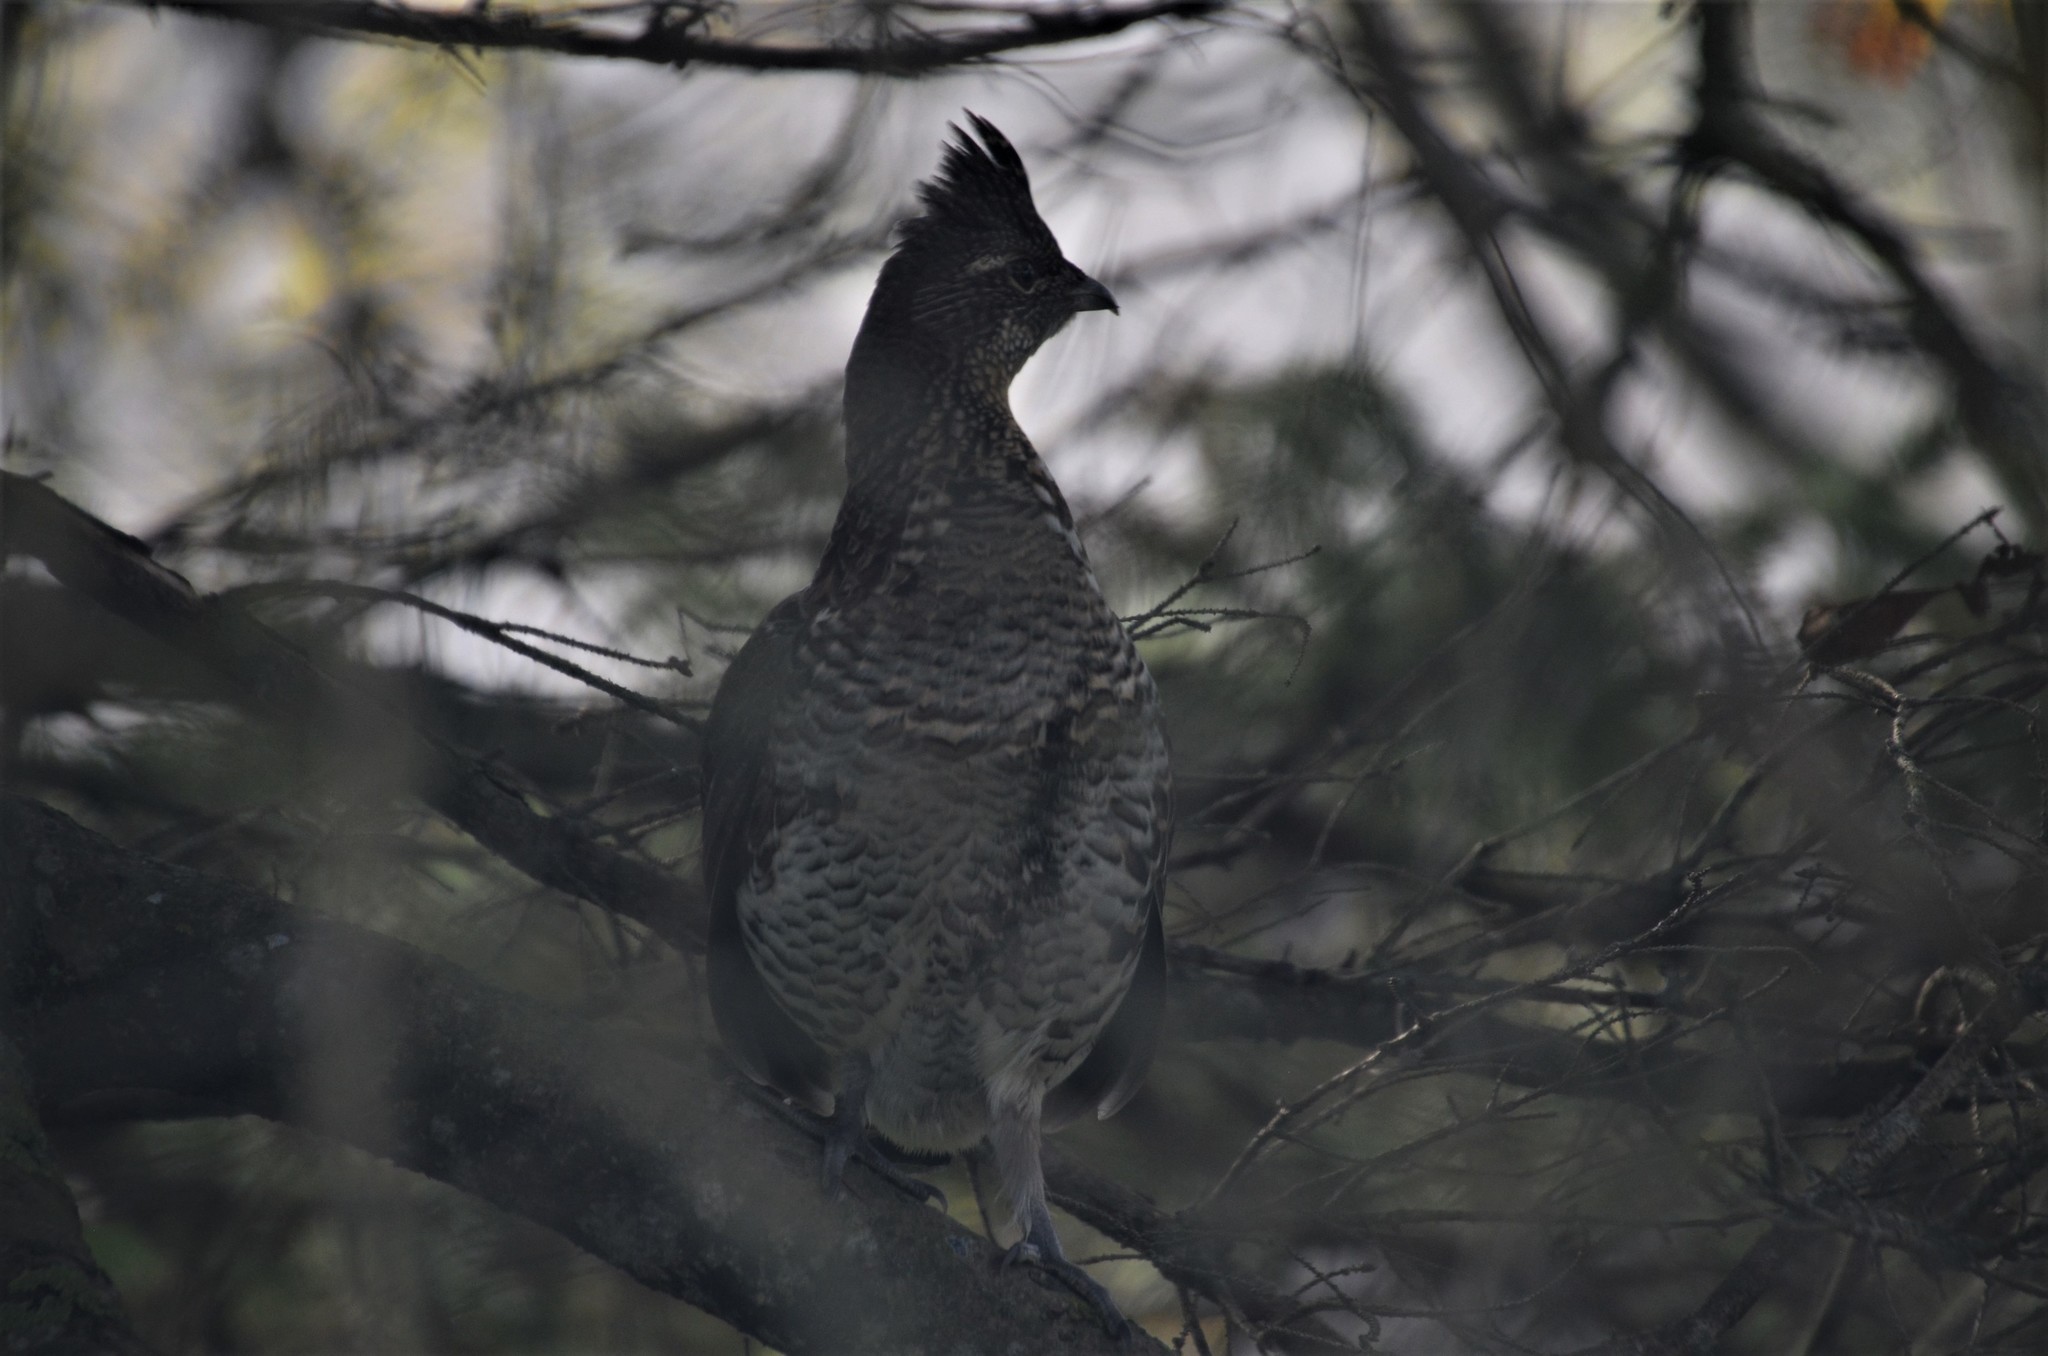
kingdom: Animalia
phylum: Chordata
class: Aves
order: Galliformes
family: Phasianidae
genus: Bonasa
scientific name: Bonasa umbellus
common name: Ruffed grouse
